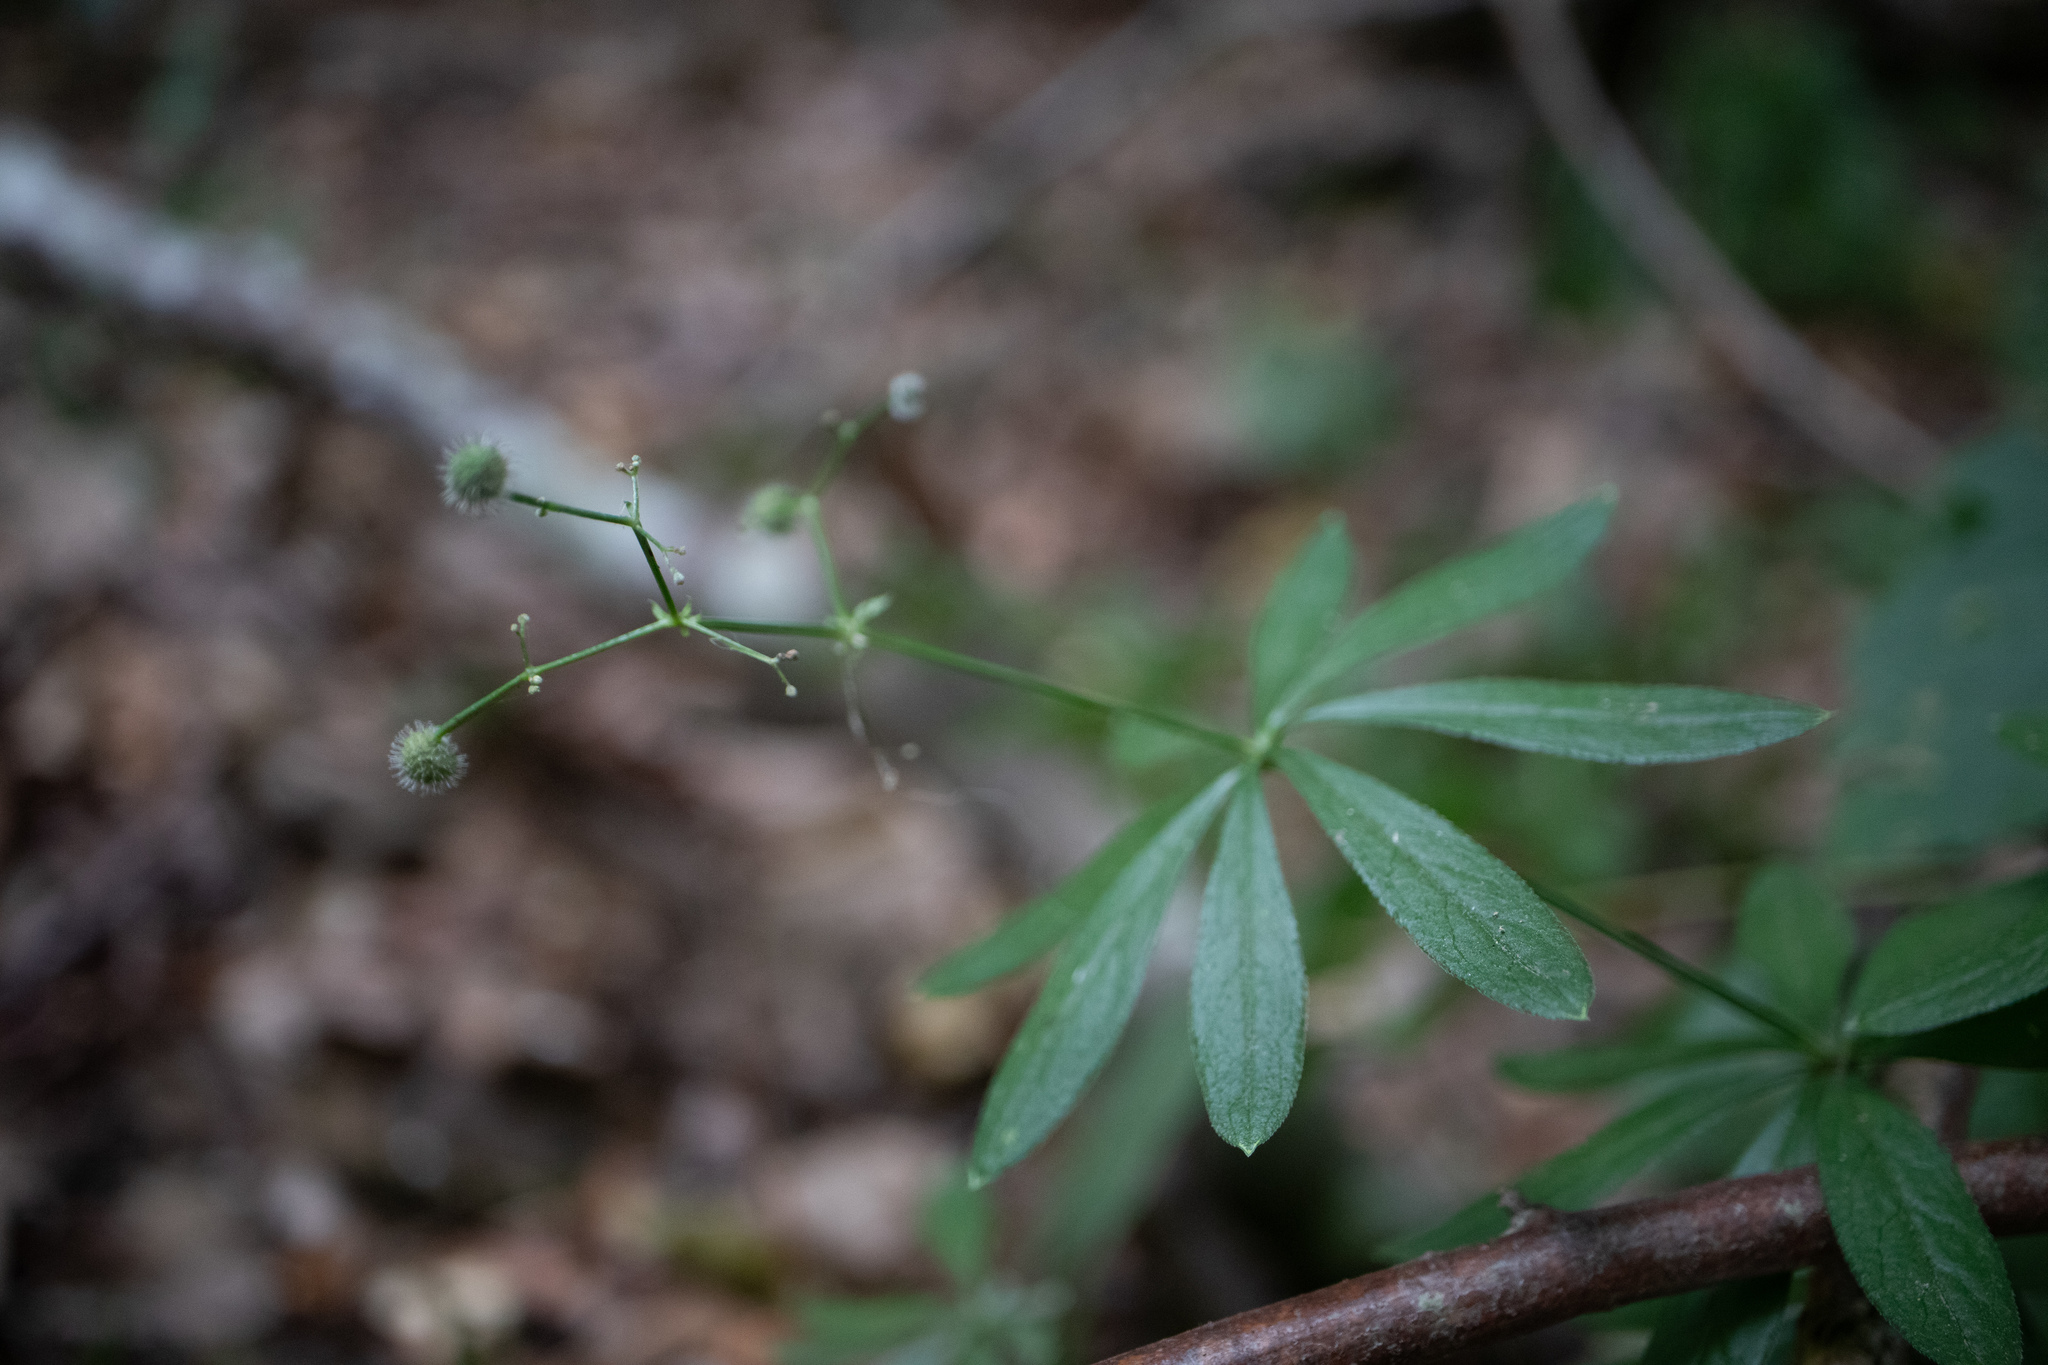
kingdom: Plantae
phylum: Tracheophyta
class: Magnoliopsida
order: Gentianales
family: Rubiaceae
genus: Galium
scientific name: Galium odoratum
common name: Sweet woodruff
